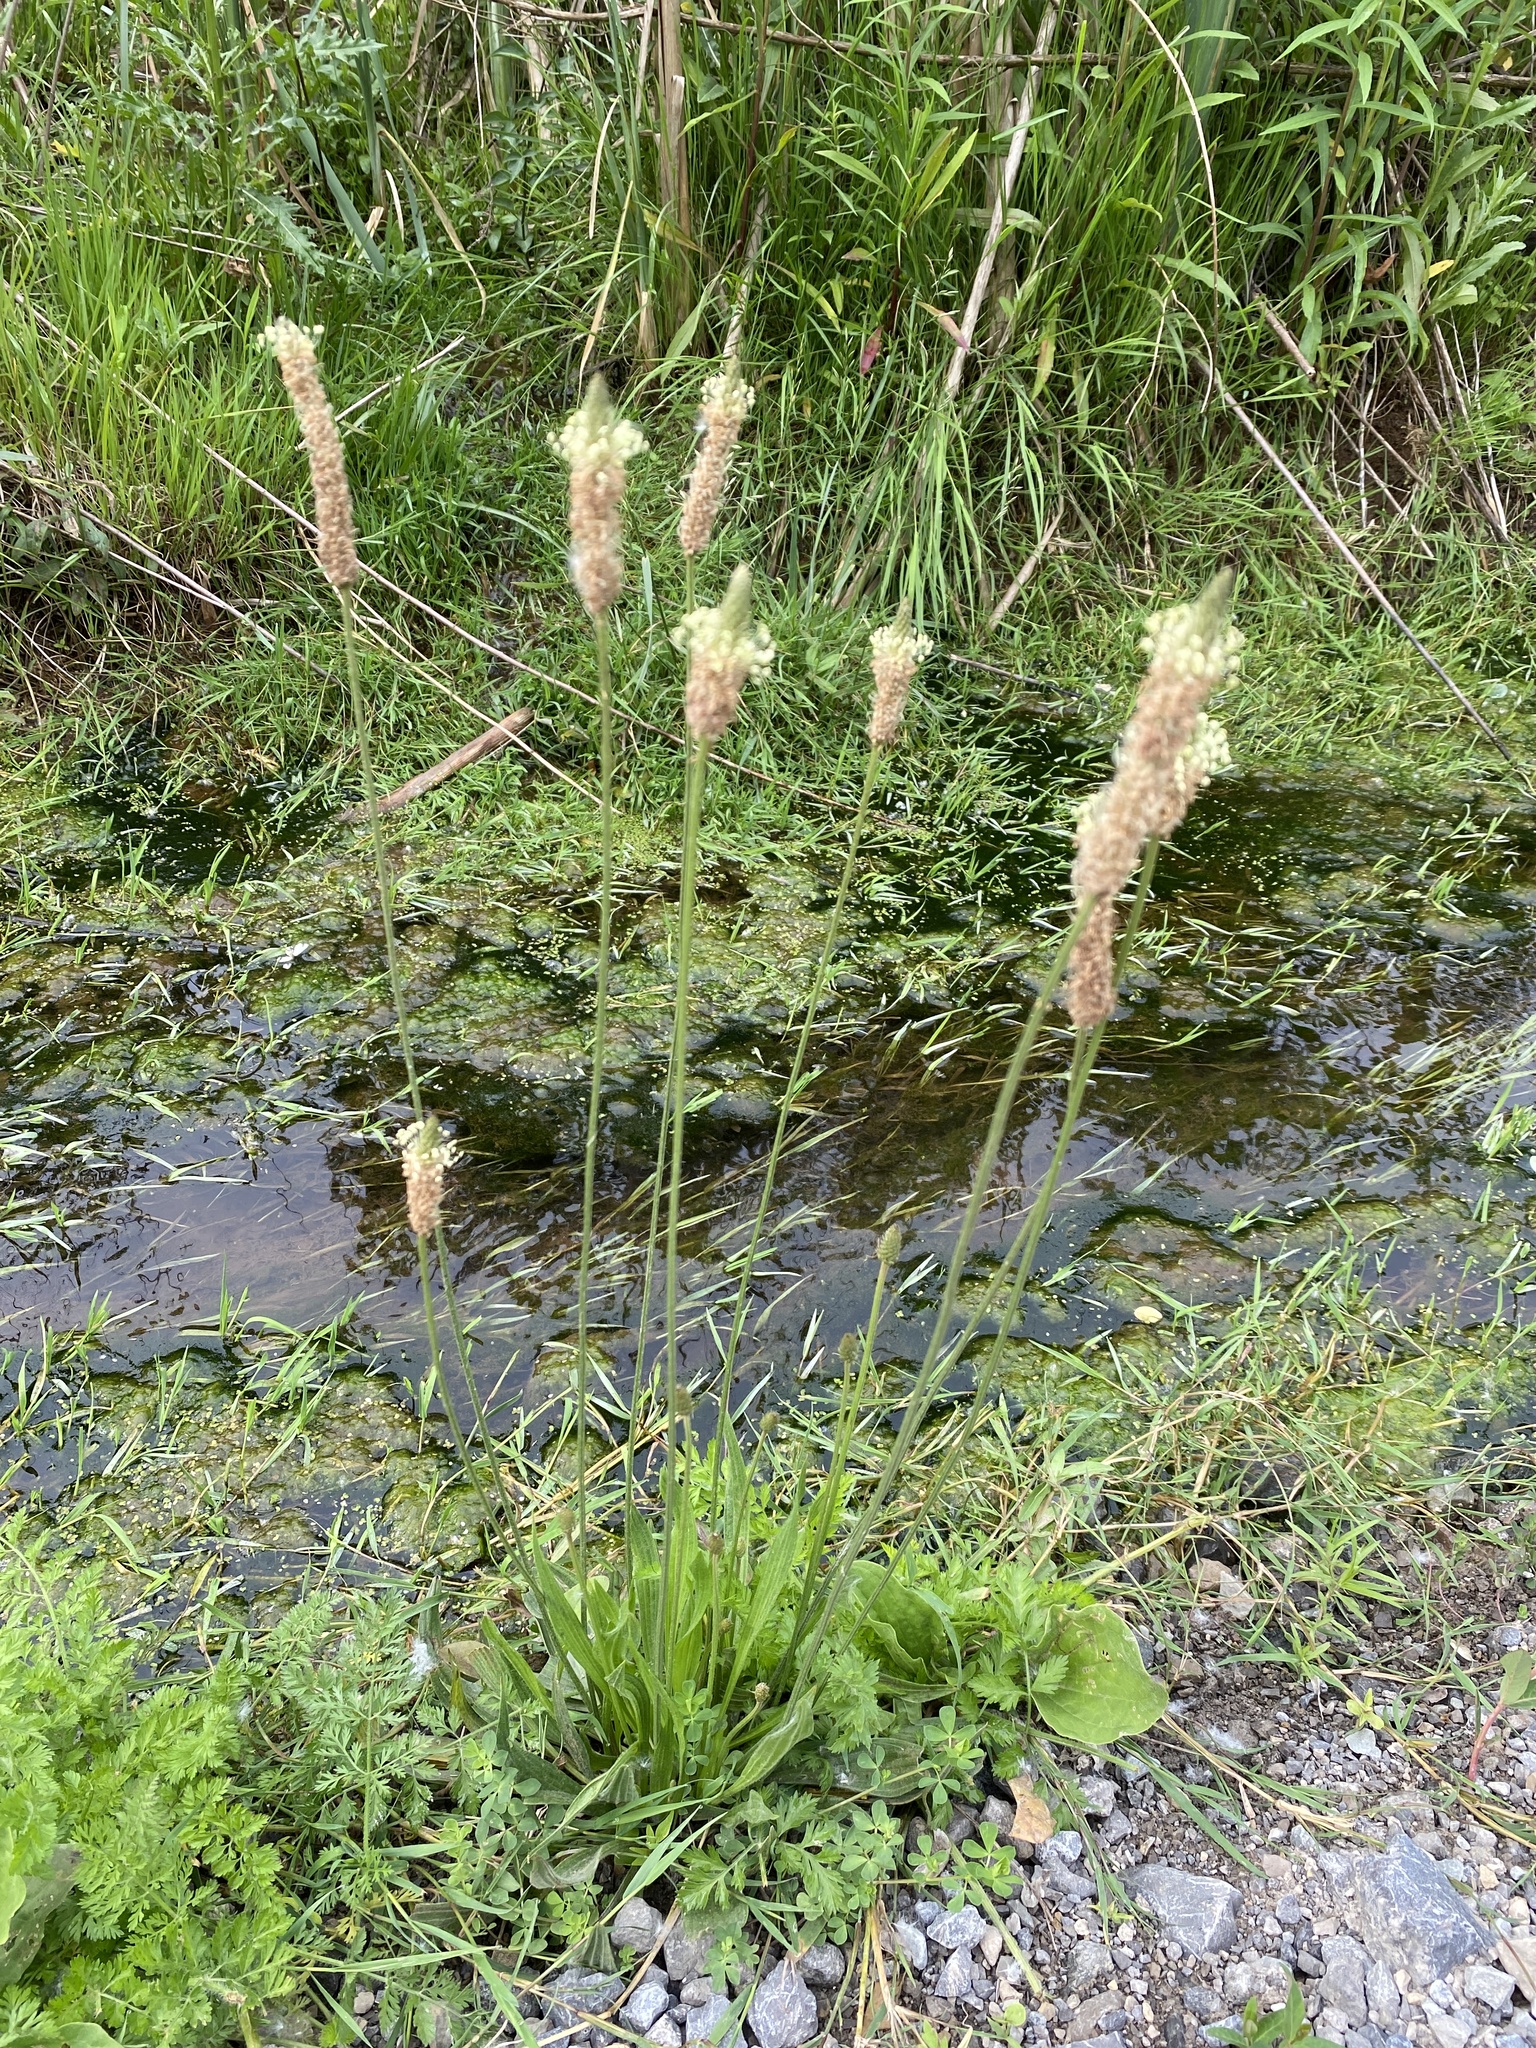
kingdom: Plantae
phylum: Tracheophyta
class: Magnoliopsida
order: Lamiales
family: Plantaginaceae
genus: Plantago
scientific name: Plantago lanceolata
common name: Ribwort plantain
